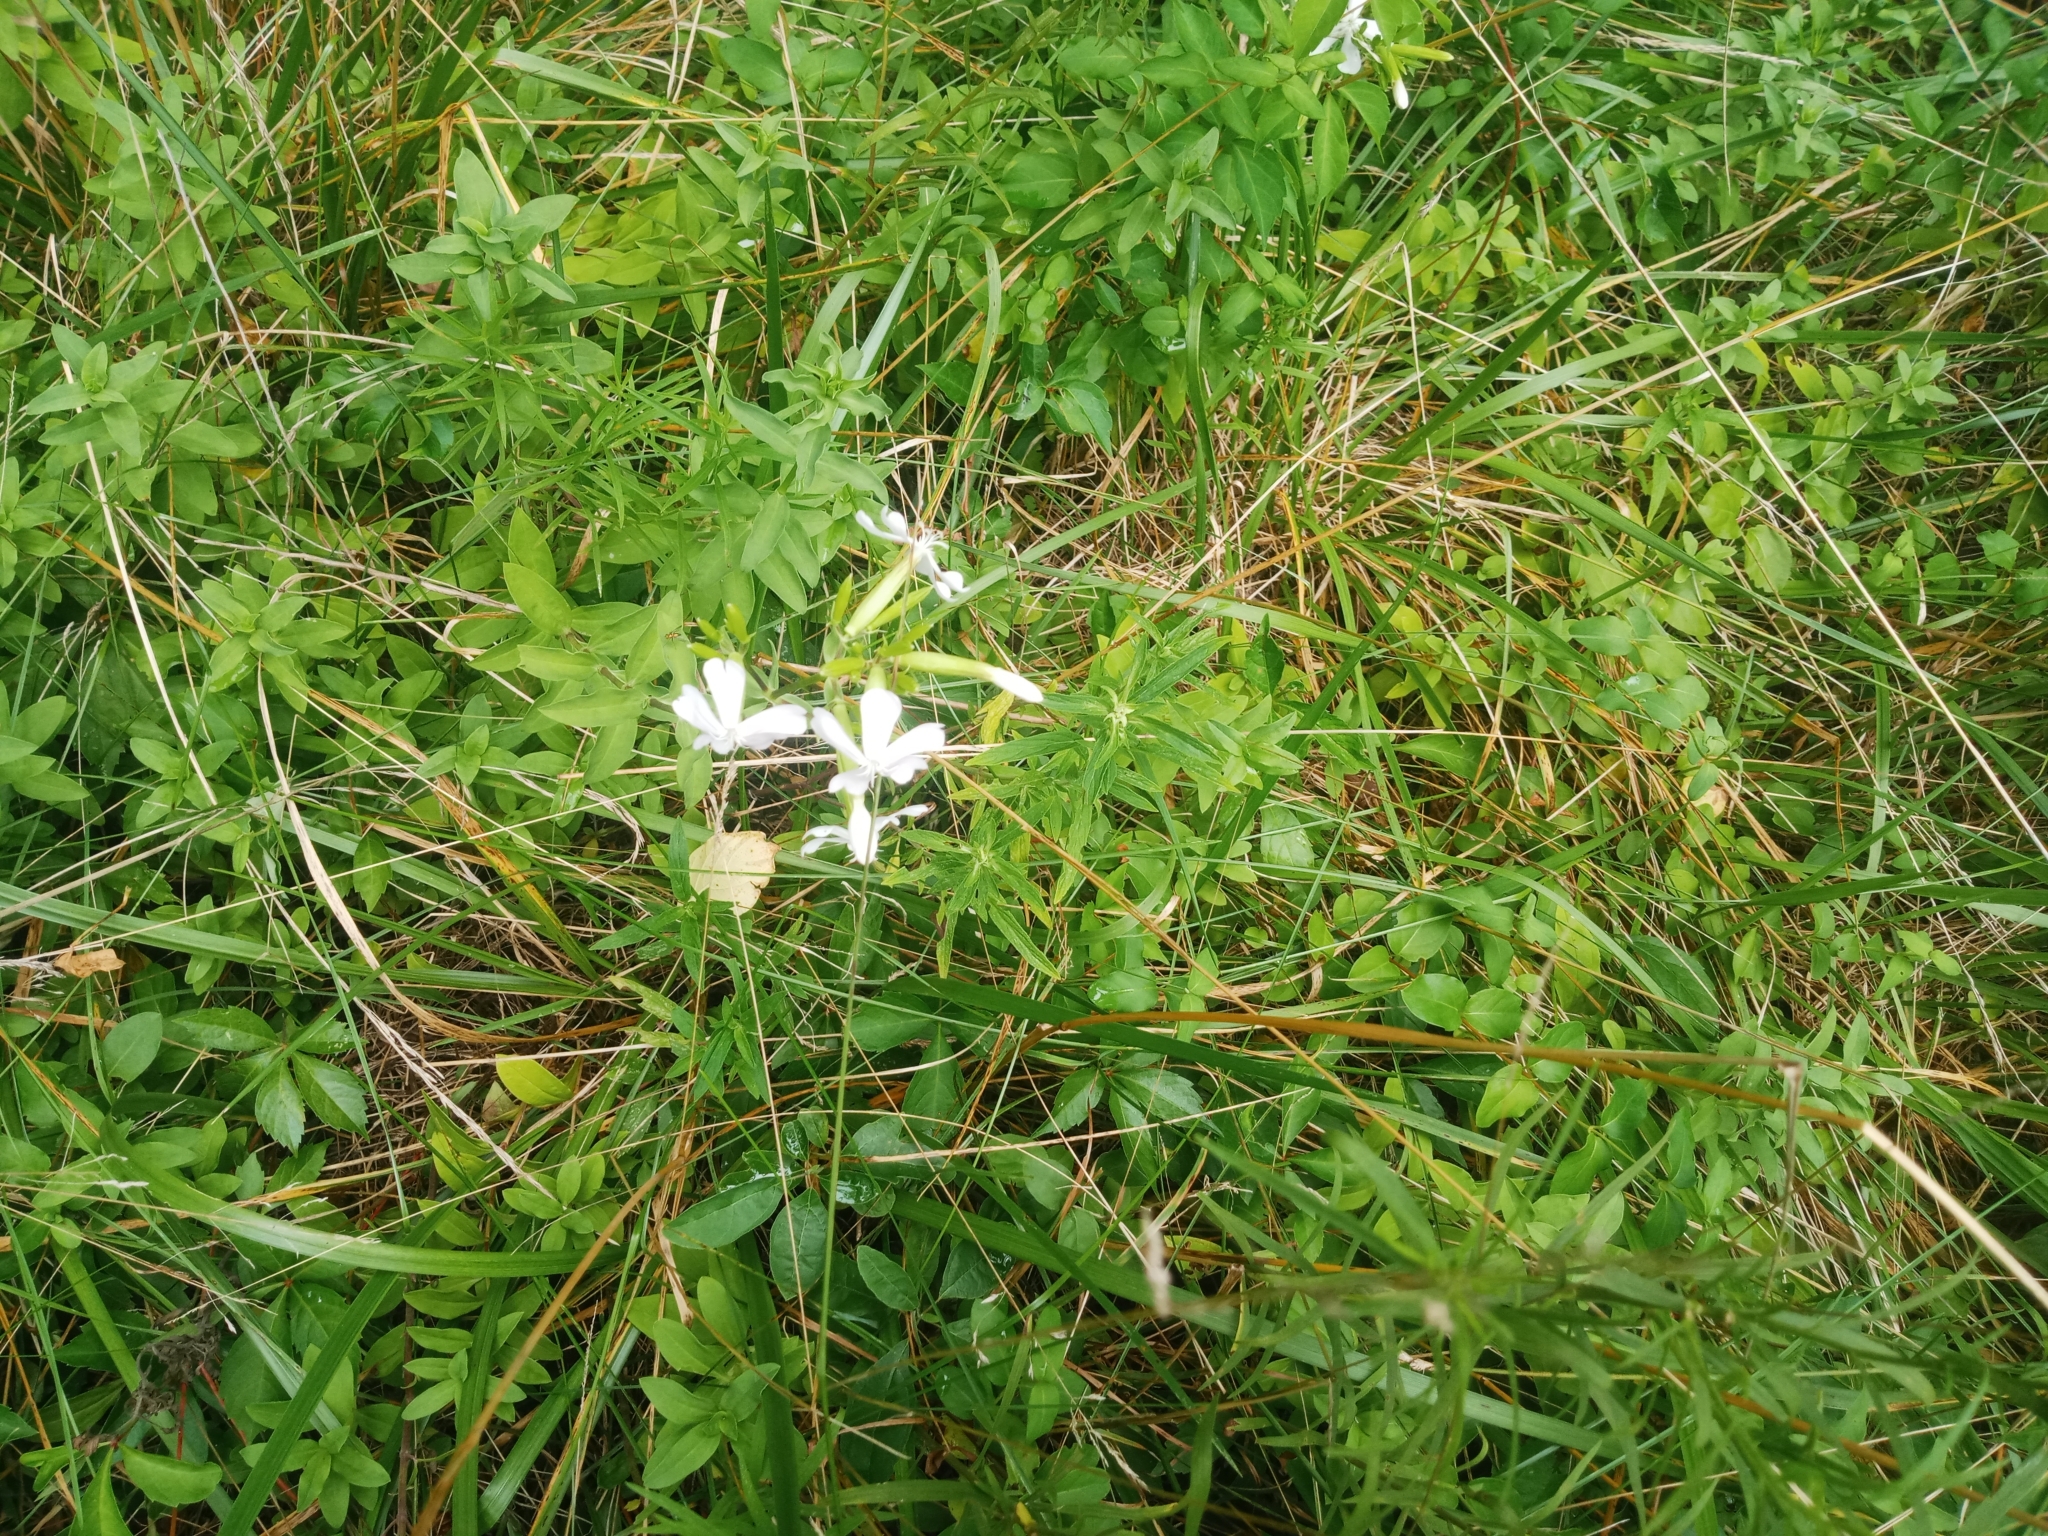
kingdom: Plantae
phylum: Tracheophyta
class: Magnoliopsida
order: Caryophyllales
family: Caryophyllaceae
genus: Saponaria
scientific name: Saponaria officinalis
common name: Soapwort
